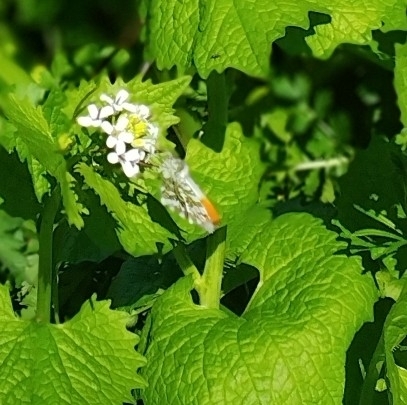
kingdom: Animalia
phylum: Arthropoda
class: Insecta
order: Lepidoptera
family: Pieridae
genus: Anthocharis
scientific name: Anthocharis cardamines
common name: Orange-tip
